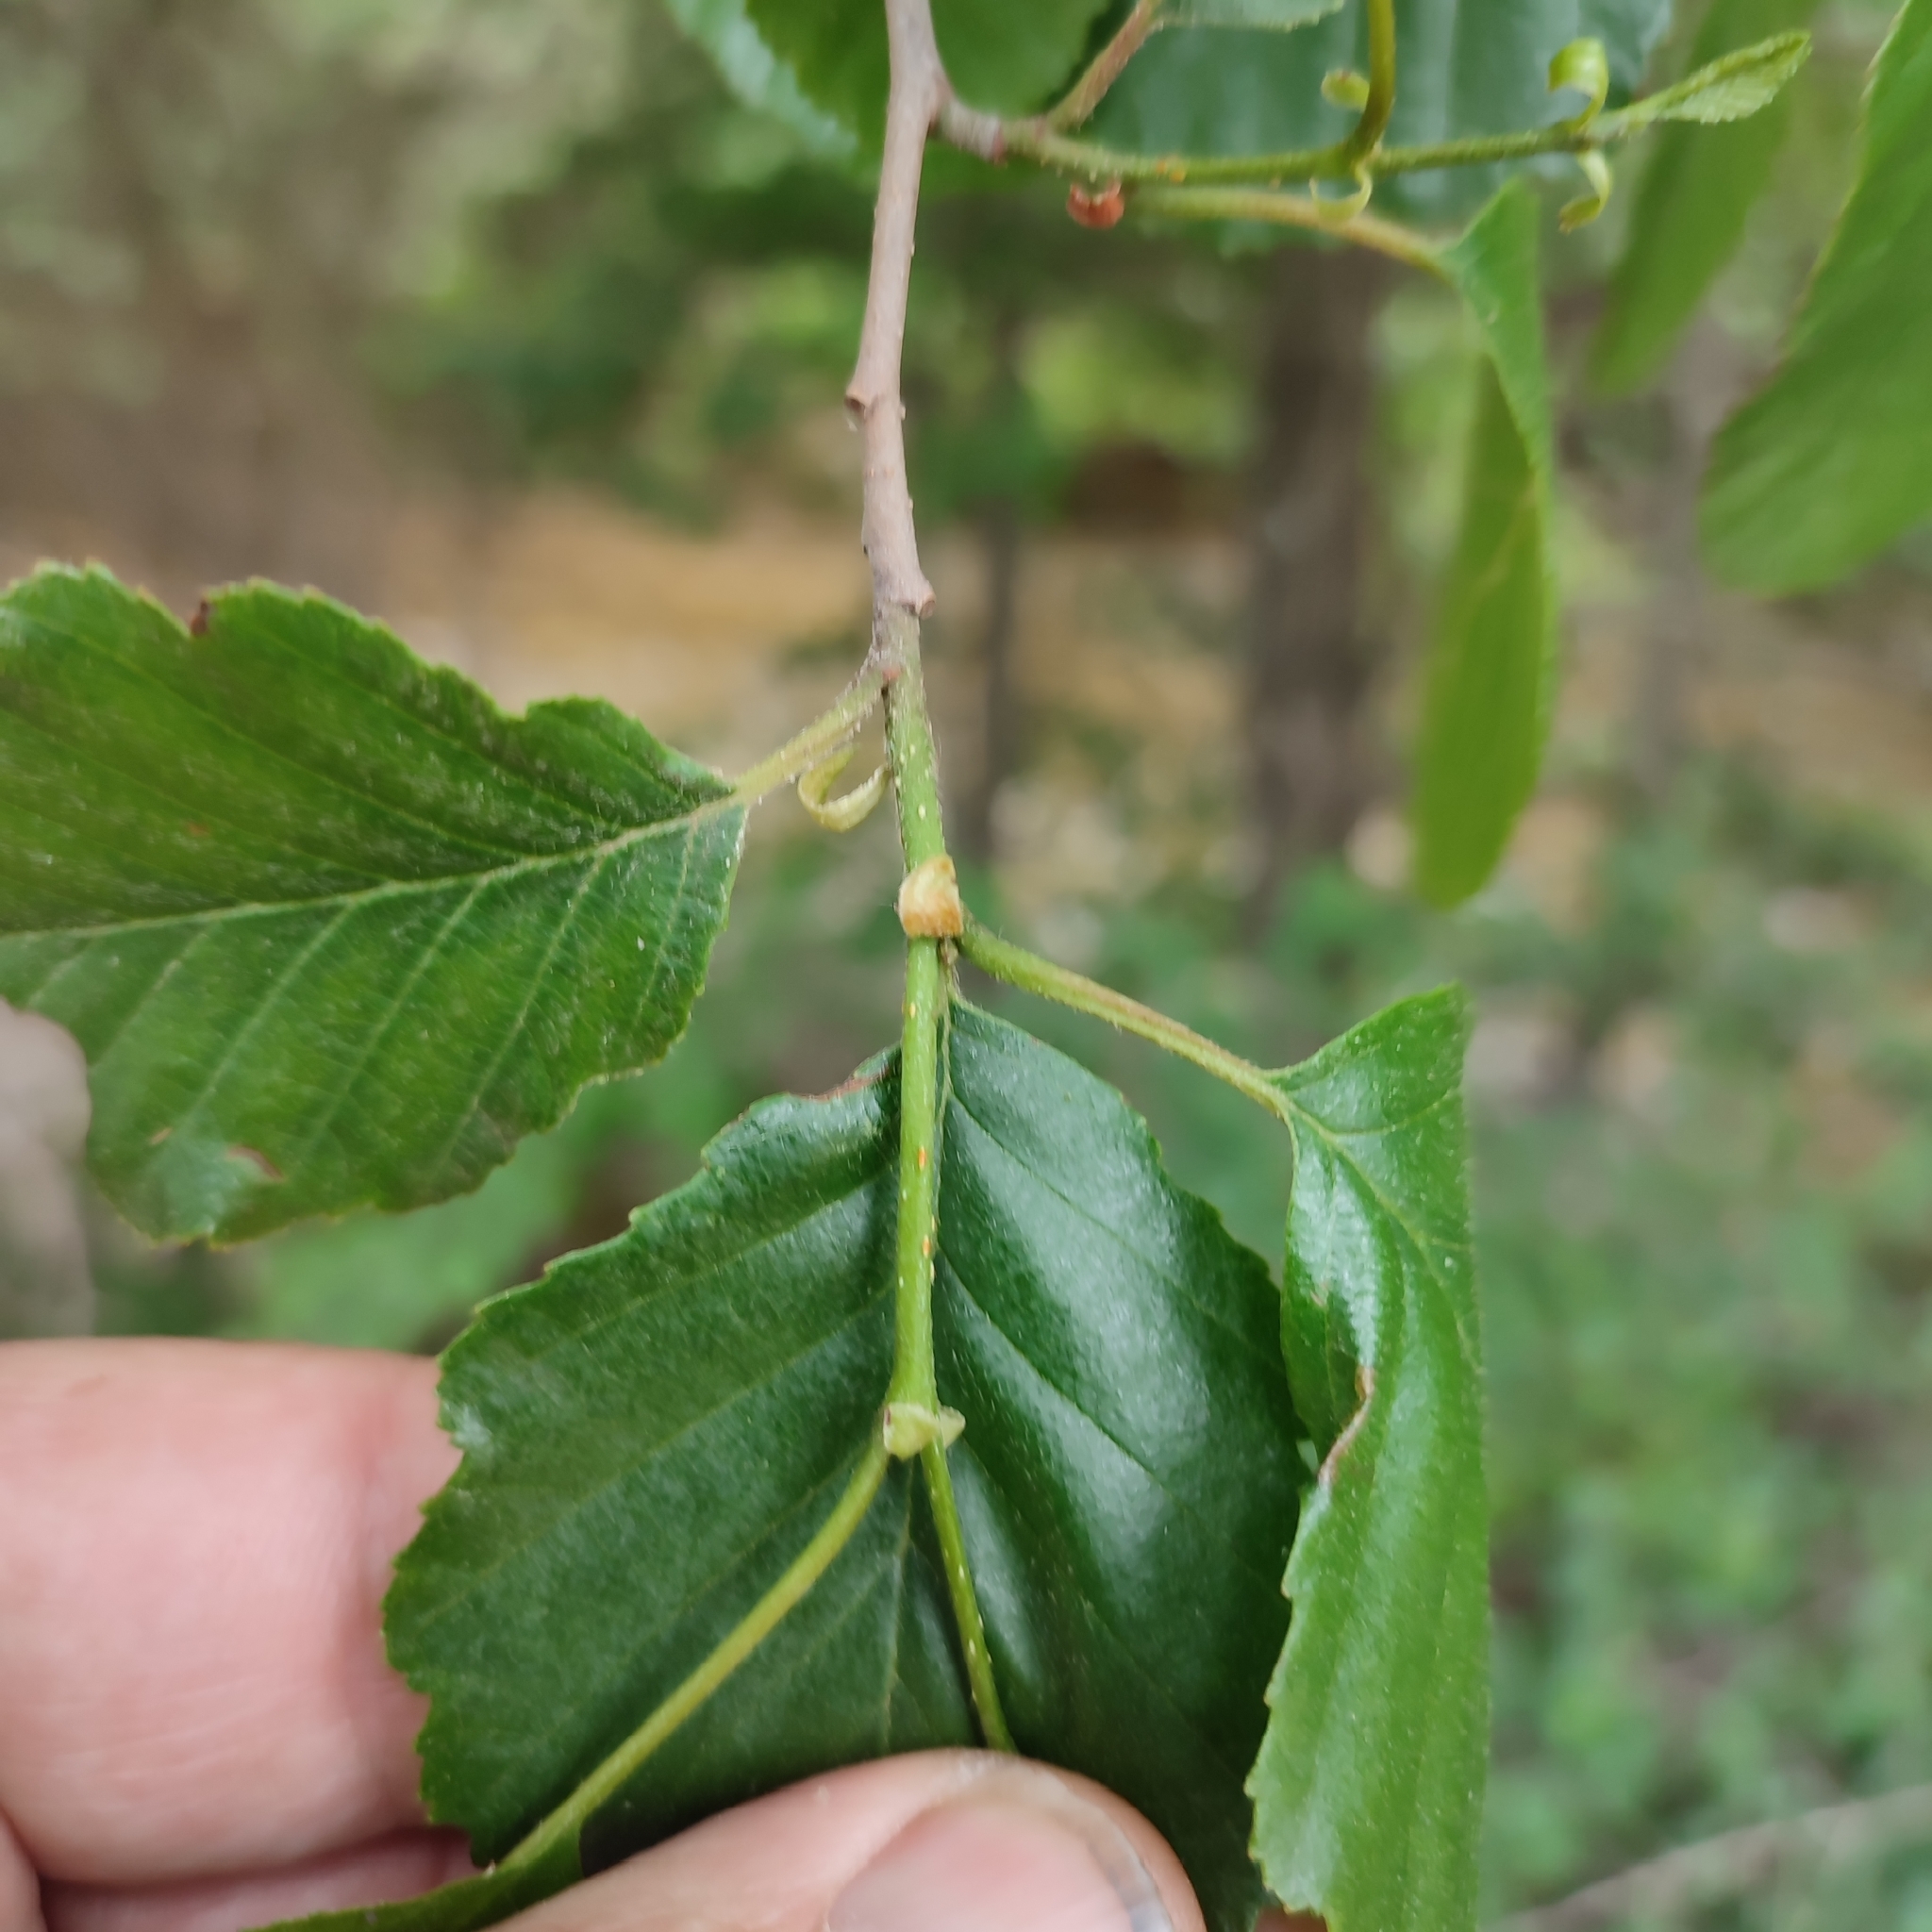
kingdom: Plantae
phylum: Tracheophyta
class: Magnoliopsida
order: Fagales
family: Betulaceae
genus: Alnus
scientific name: Alnus glutinosa
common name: Black alder
